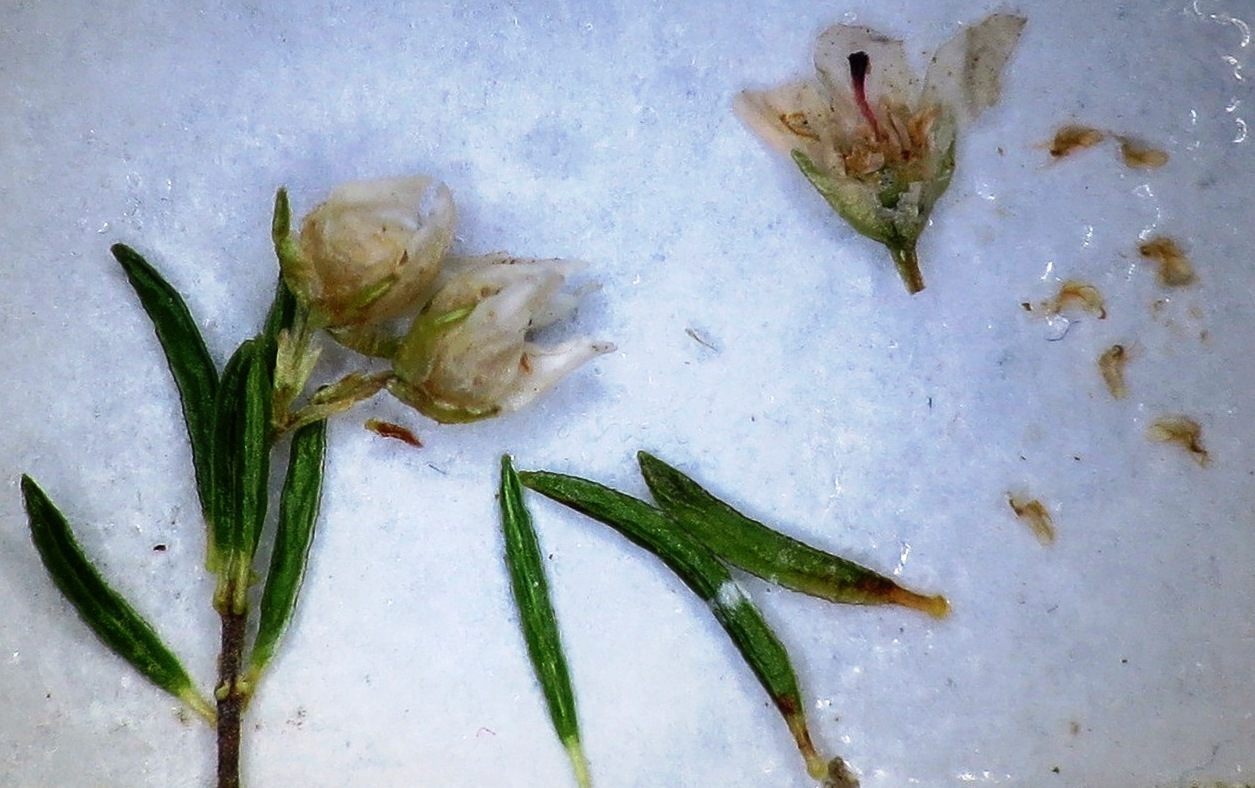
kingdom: Plantae
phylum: Tracheophyta
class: Magnoliopsida
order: Ericales
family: Ericaceae
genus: Erica
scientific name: Erica tenuis
